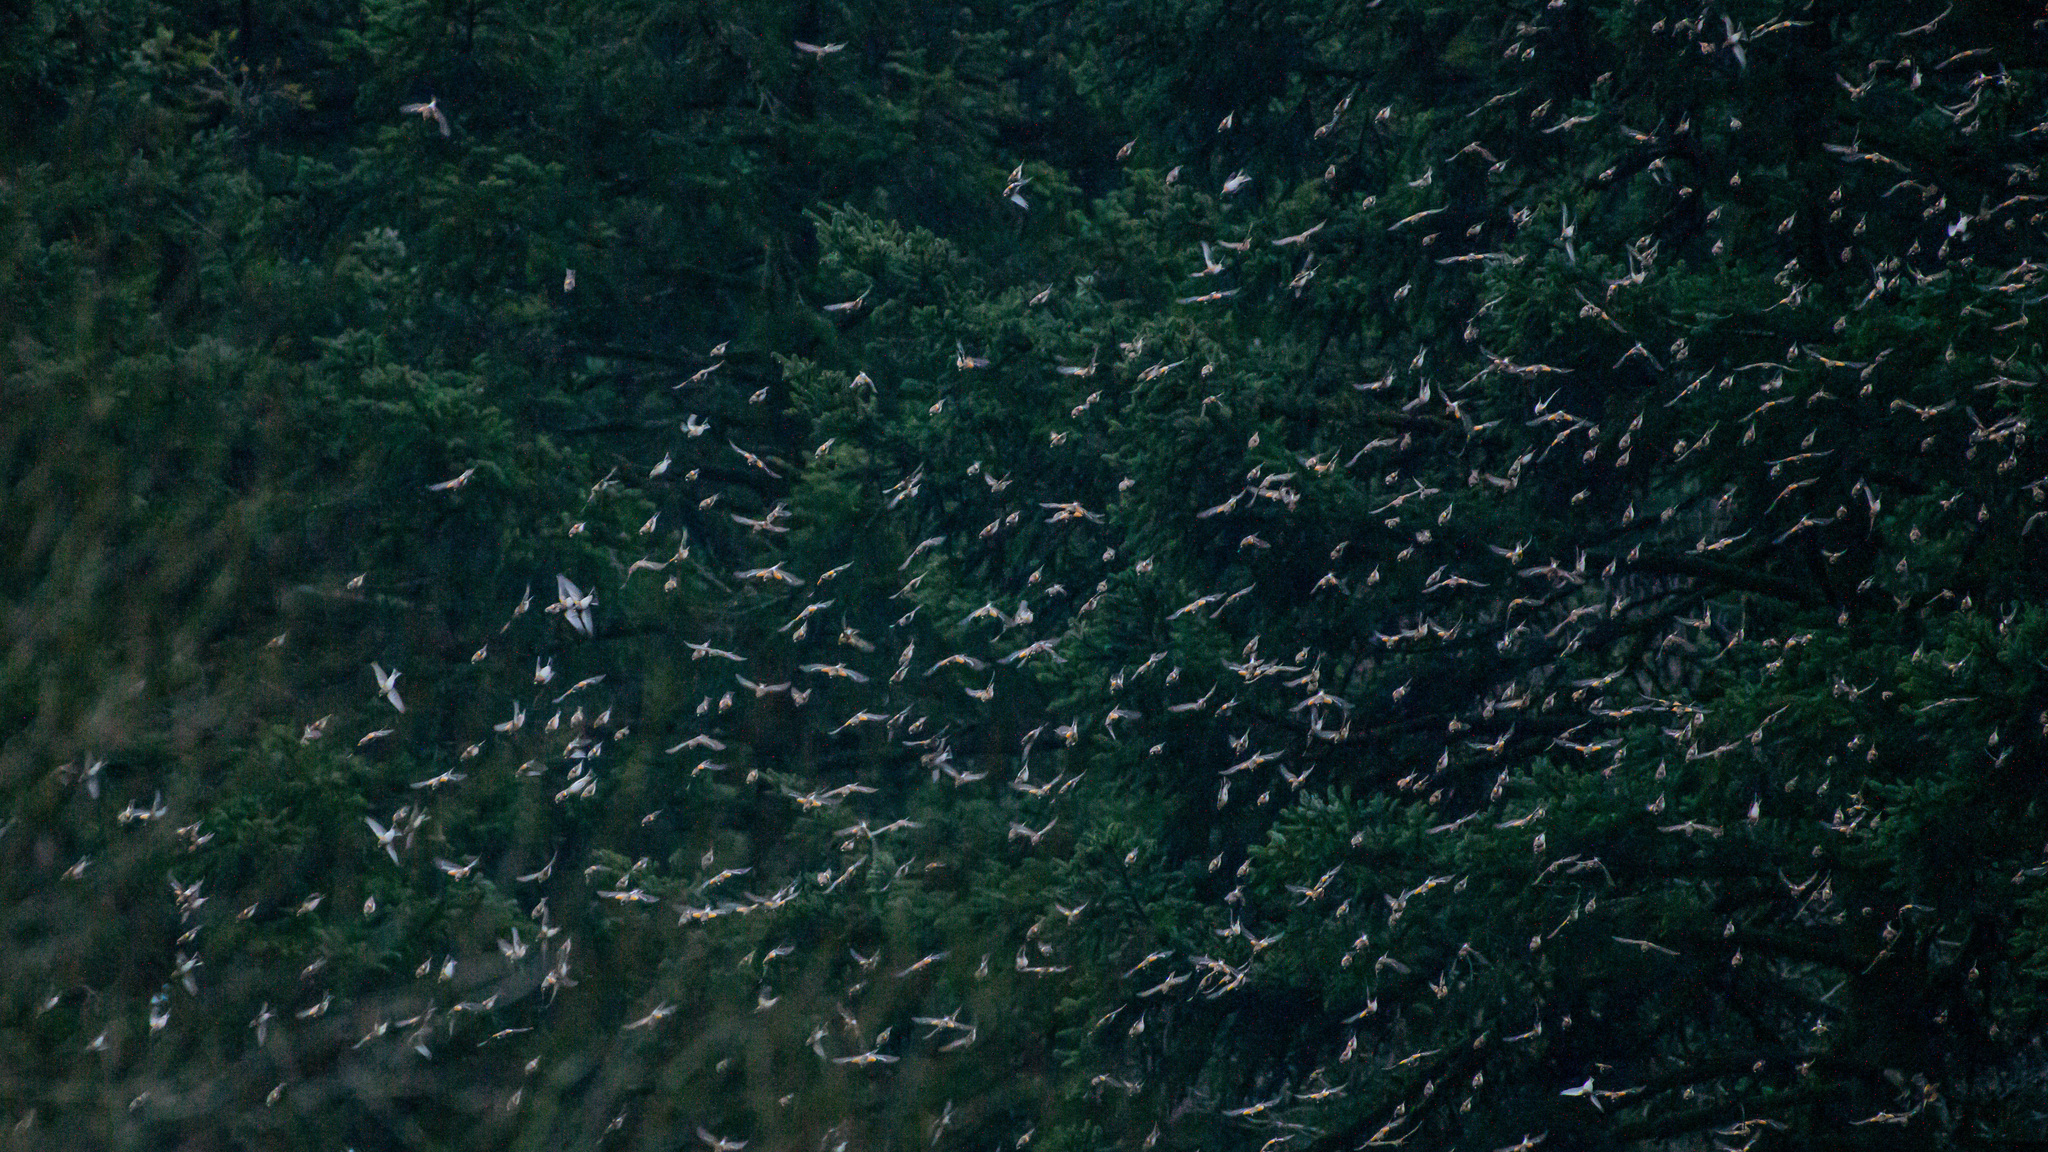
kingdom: Animalia
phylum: Chordata
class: Aves
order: Passeriformes
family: Fringillidae
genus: Fringilla
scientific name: Fringilla montifringilla
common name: Brambling
